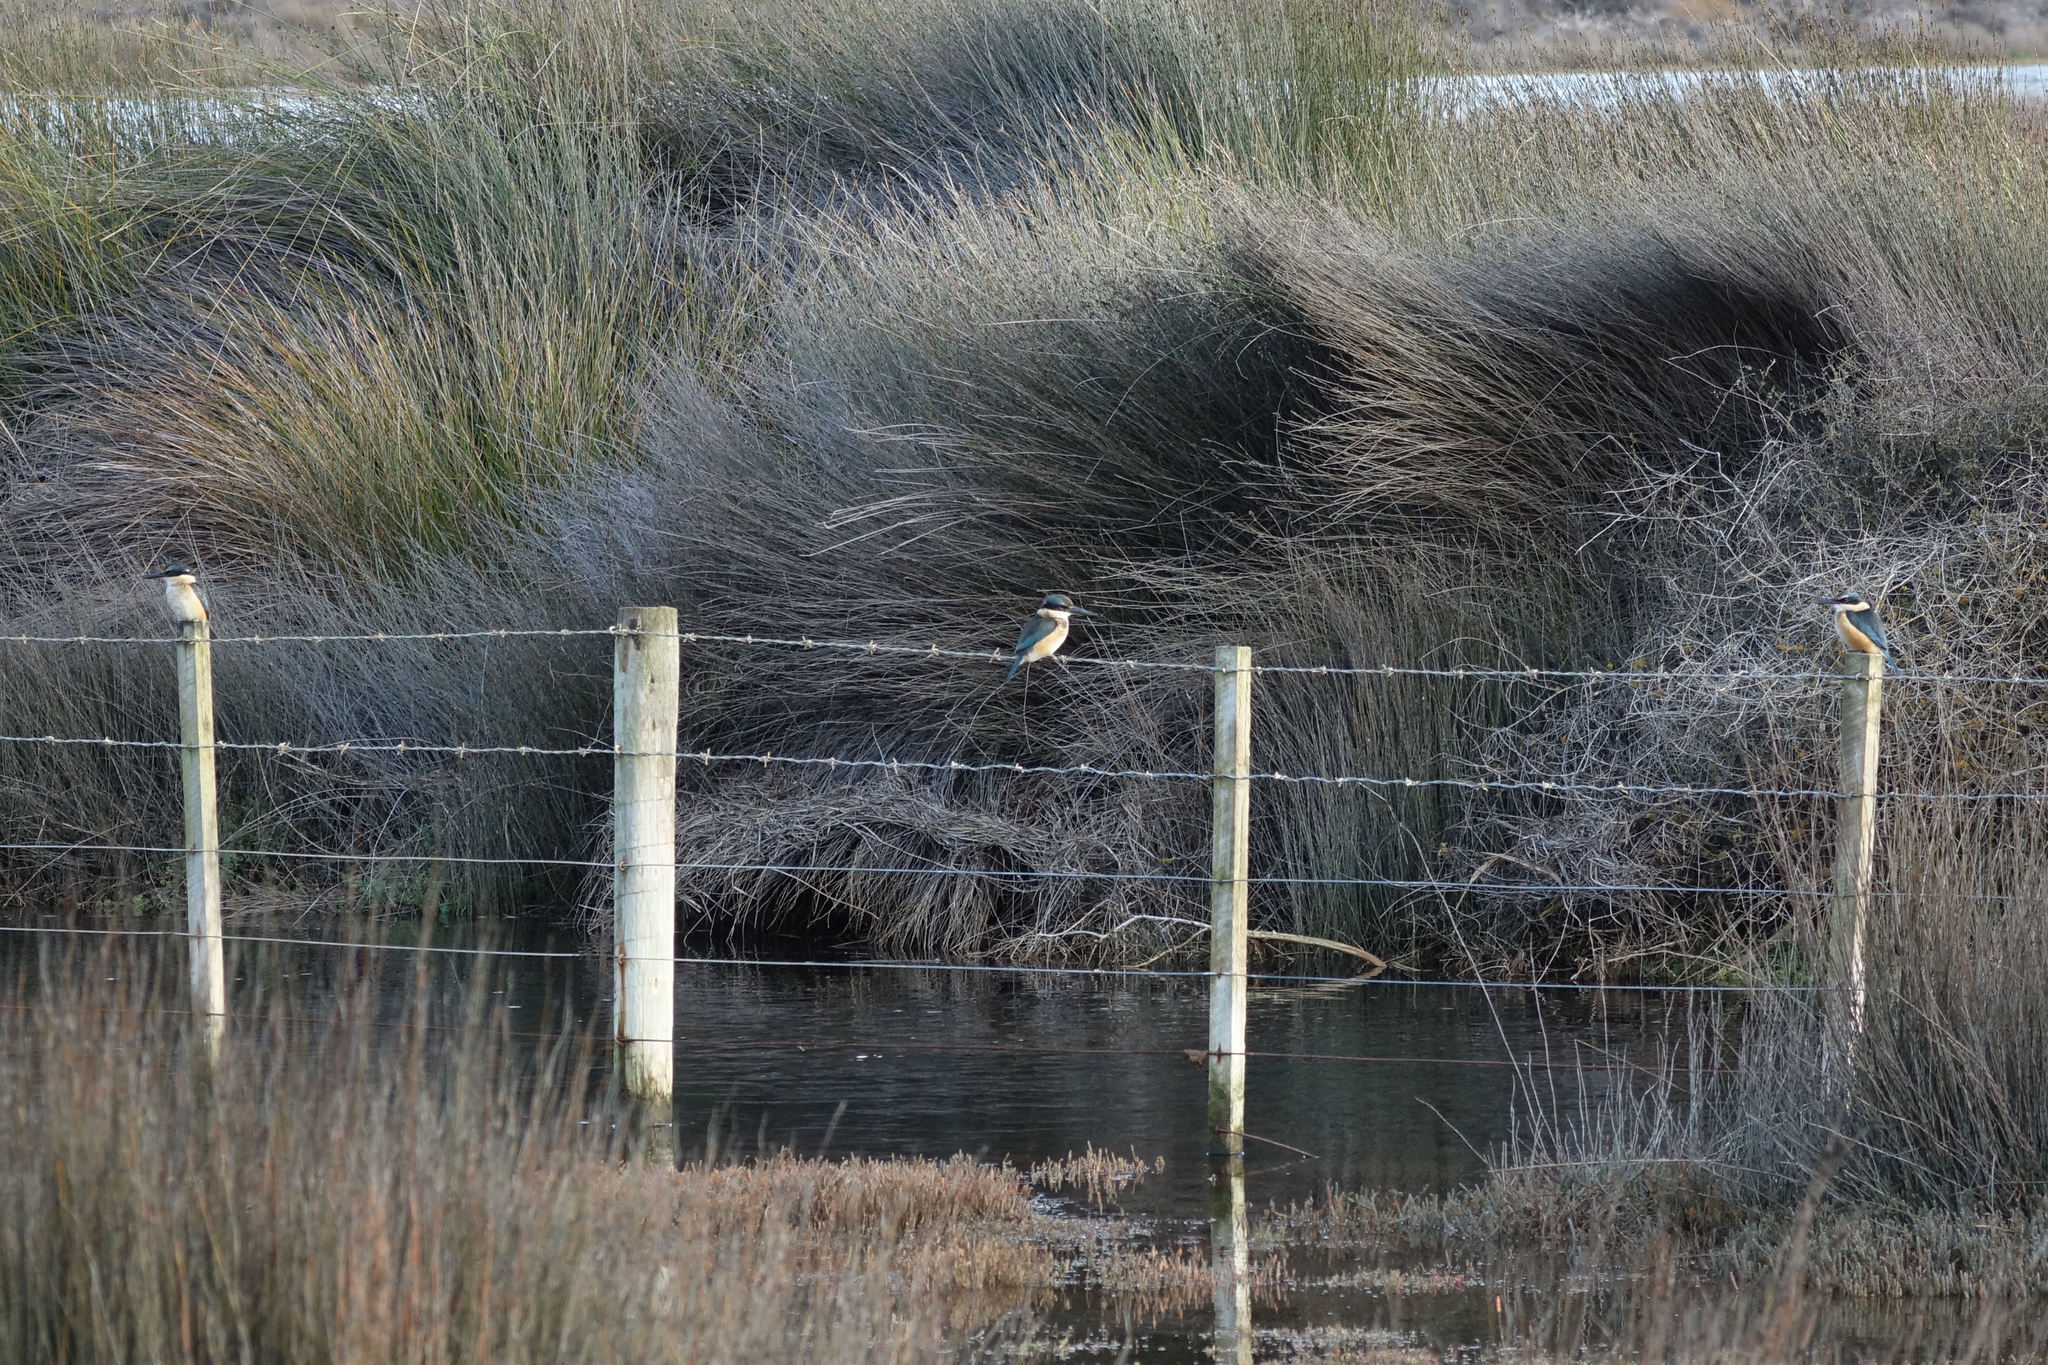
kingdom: Animalia
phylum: Chordata
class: Aves
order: Coraciiformes
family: Alcedinidae
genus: Todiramphus
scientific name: Todiramphus sanctus
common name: Sacred kingfisher
